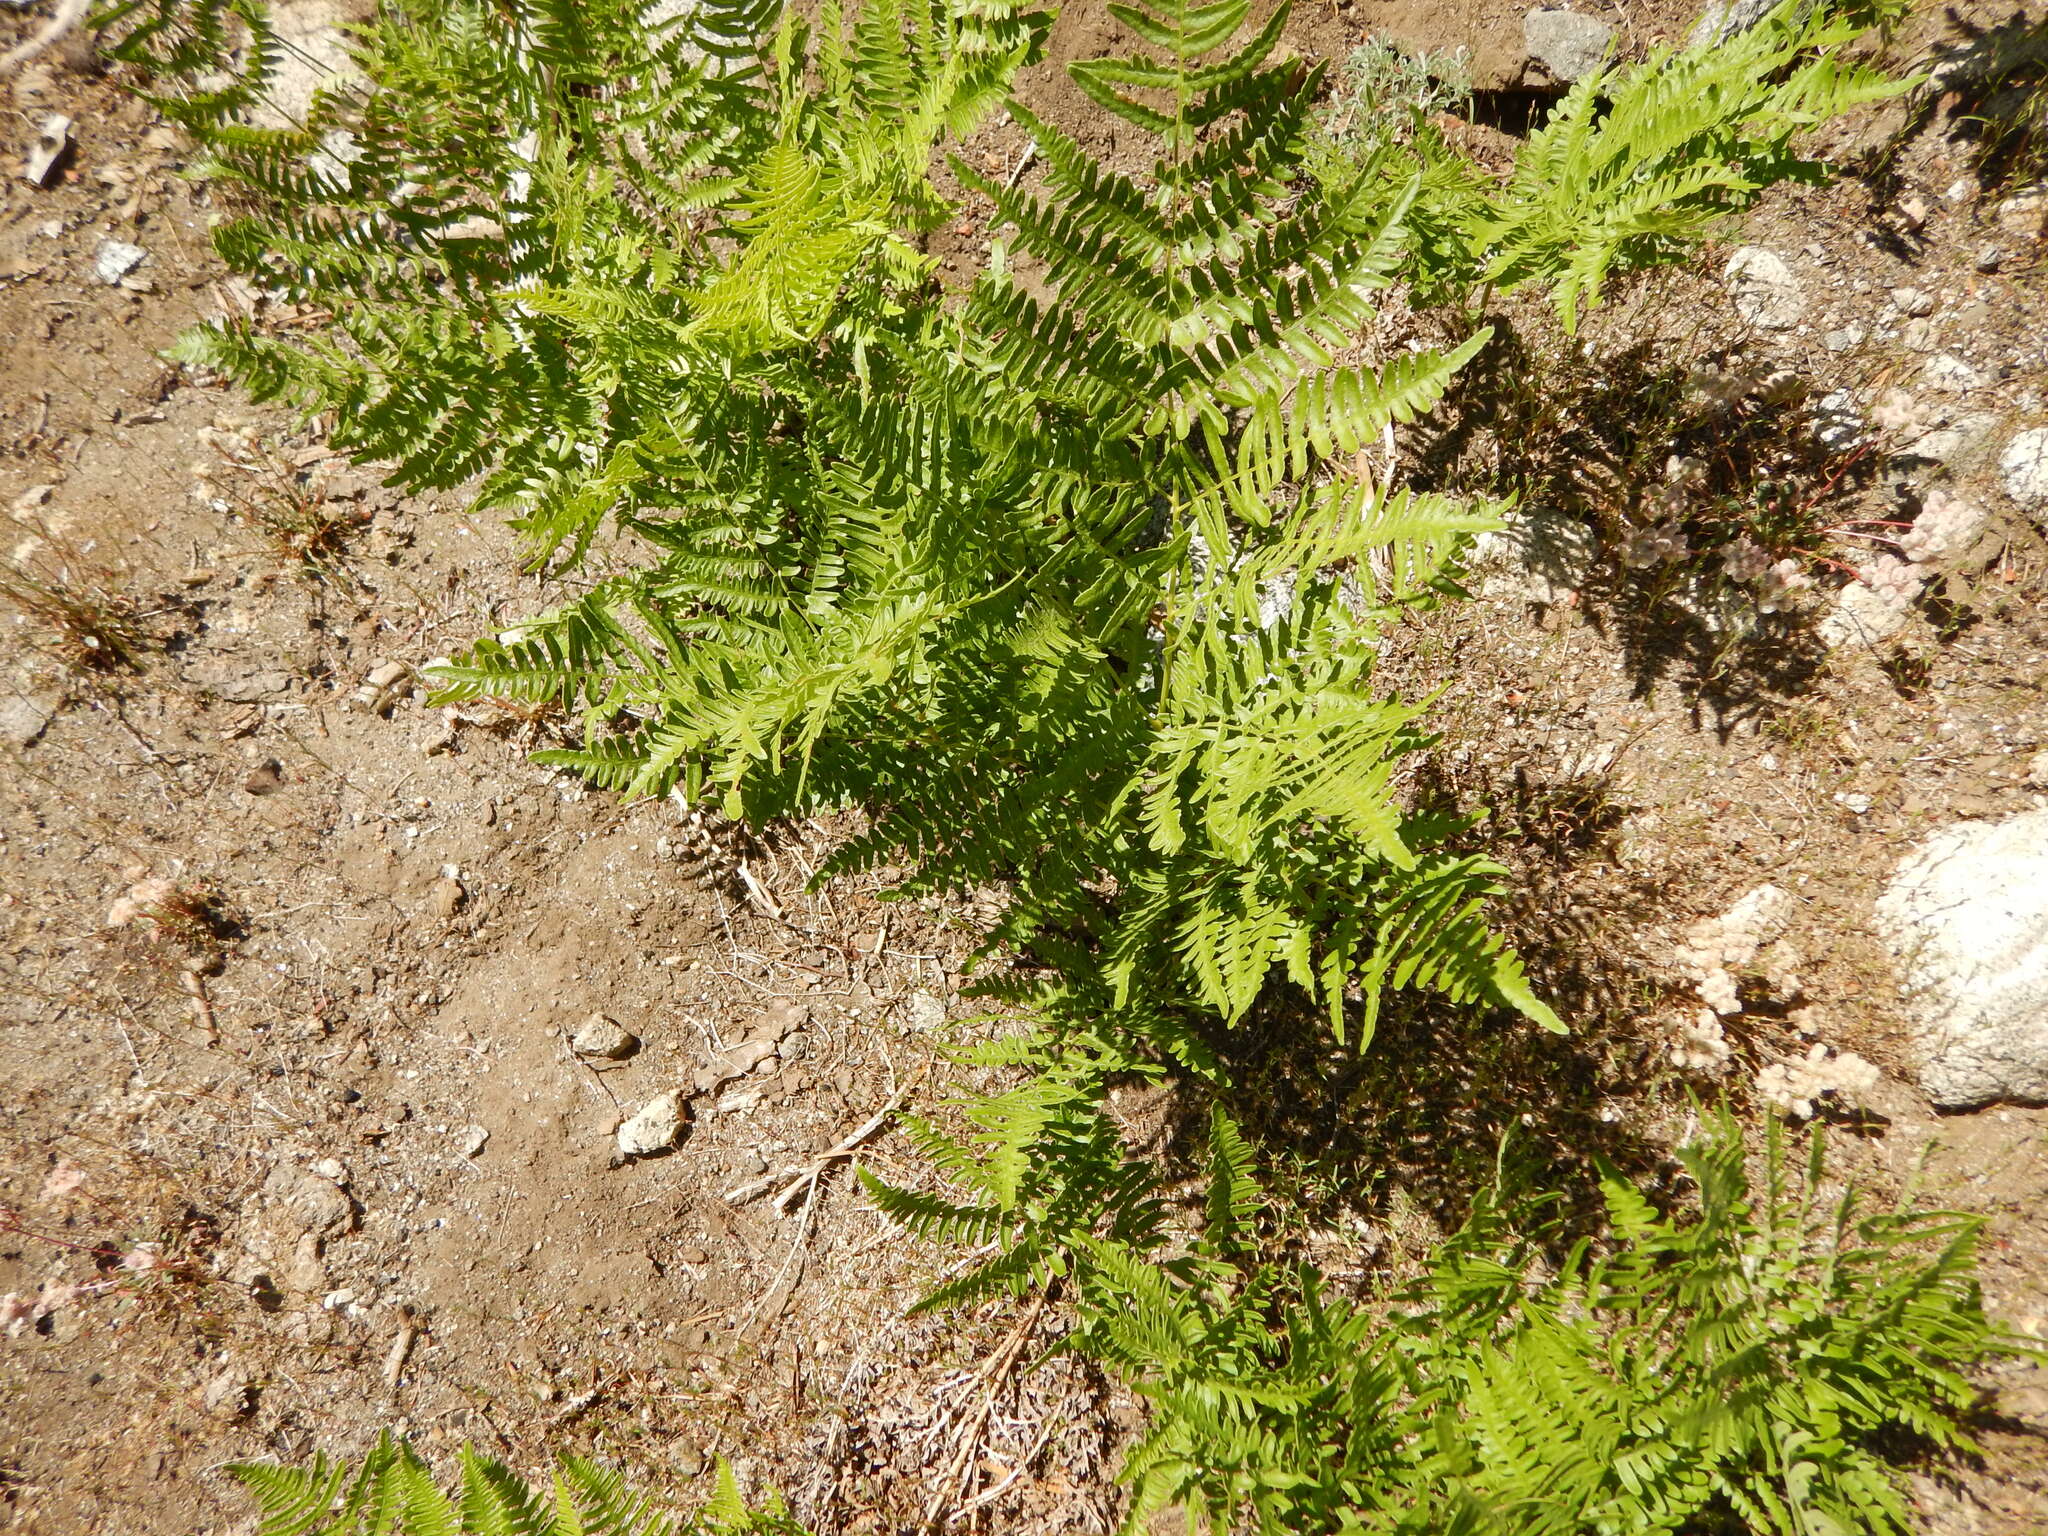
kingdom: Plantae
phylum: Tracheophyta
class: Polypodiopsida
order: Polypodiales
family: Dennstaedtiaceae
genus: Pteridium
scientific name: Pteridium aquilinum
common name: Bracken
